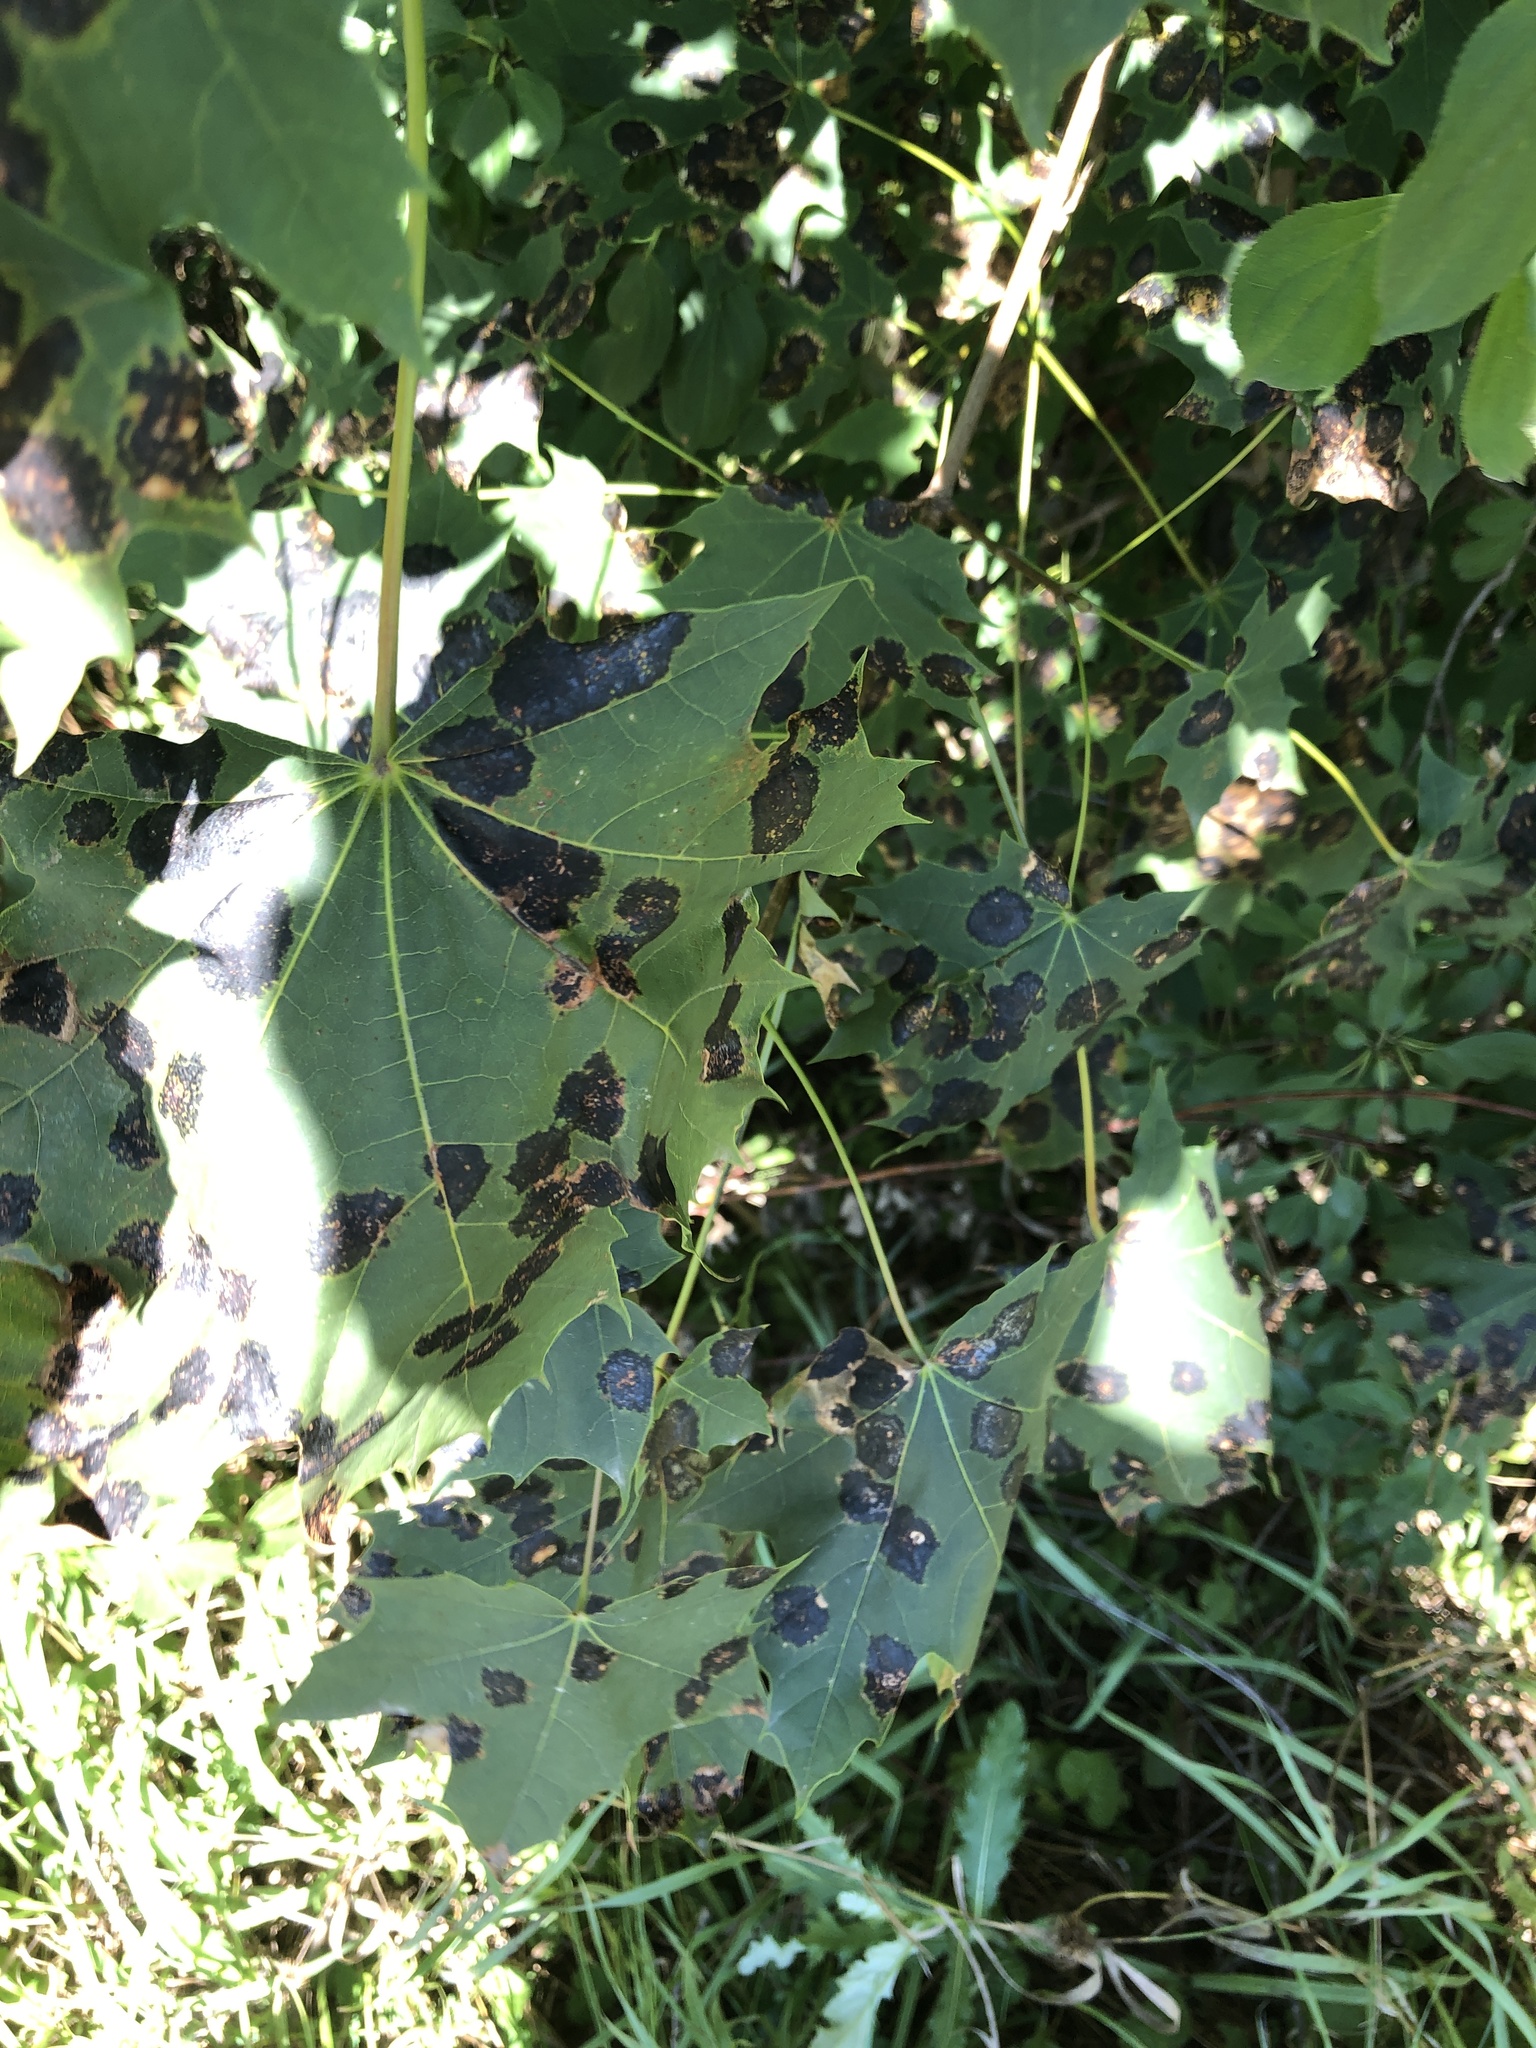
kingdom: Fungi
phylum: Ascomycota
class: Leotiomycetes
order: Rhytismatales
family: Rhytismataceae
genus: Rhytisma
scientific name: Rhytisma acerinum
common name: European tar spot
